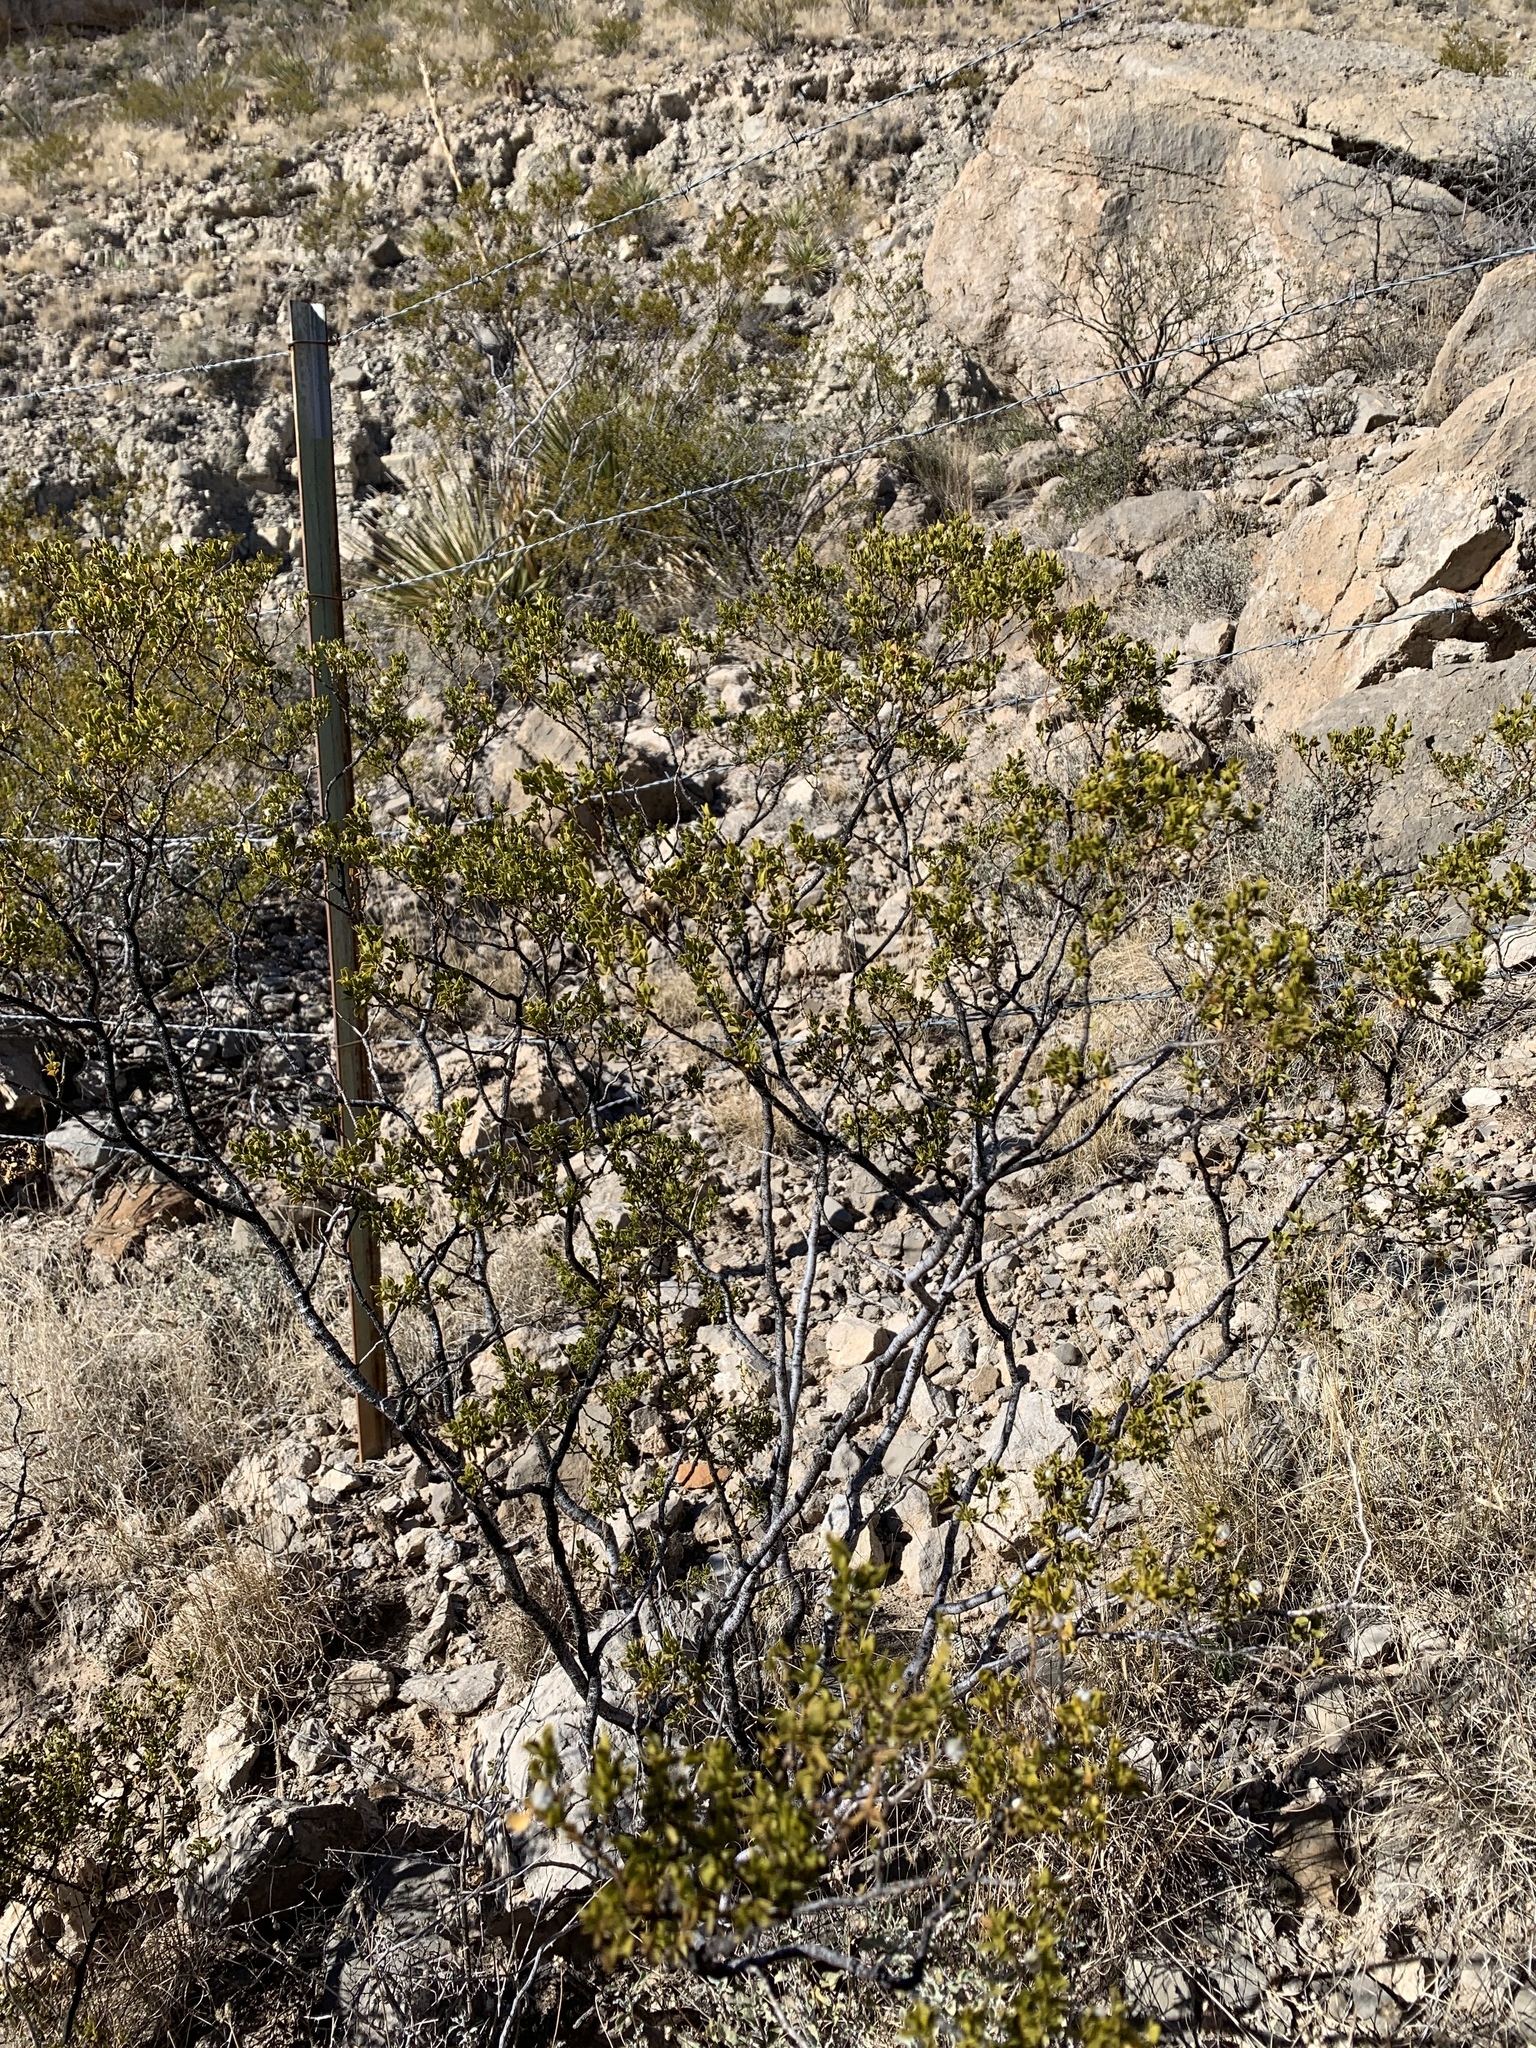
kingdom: Plantae
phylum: Tracheophyta
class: Magnoliopsida
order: Zygophyllales
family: Zygophyllaceae
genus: Larrea
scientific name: Larrea tridentata
